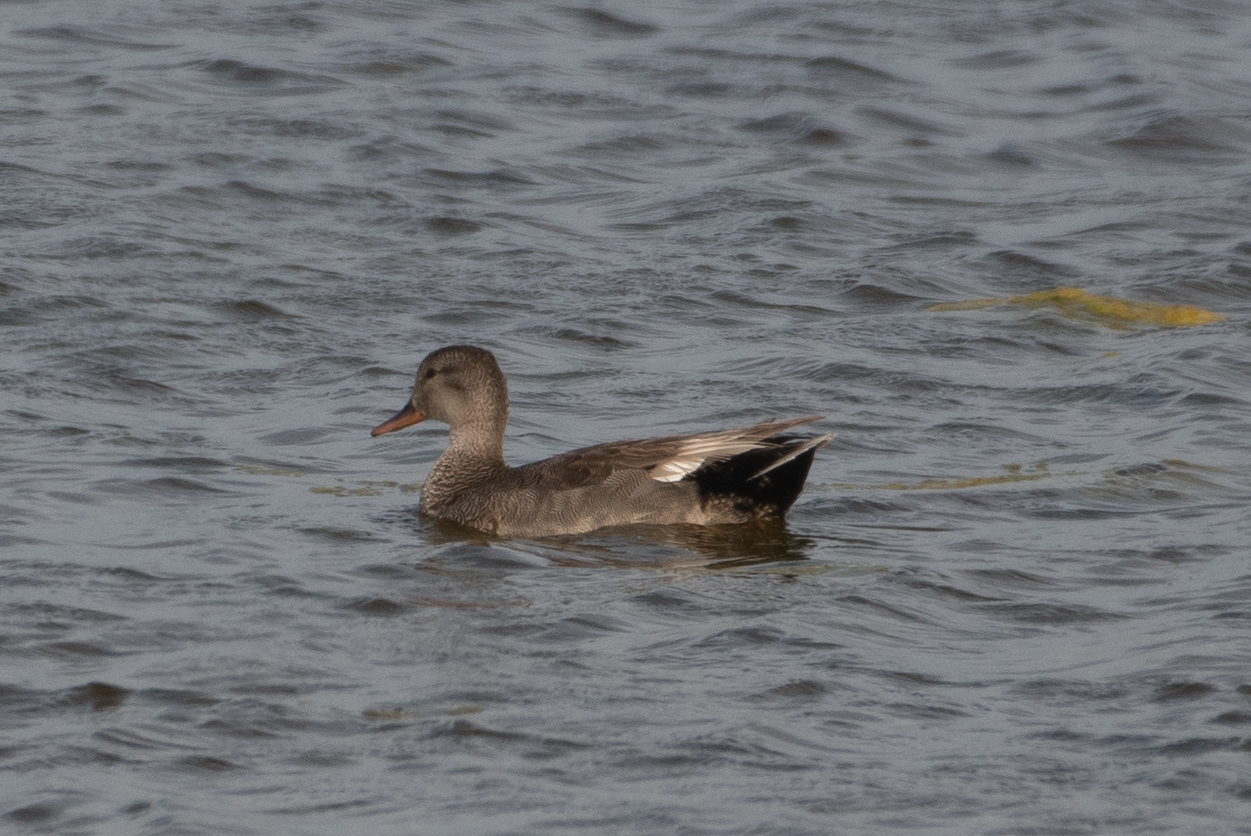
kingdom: Animalia
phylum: Chordata
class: Aves
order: Anseriformes
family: Anatidae
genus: Mareca
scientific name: Mareca strepera
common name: Gadwall
